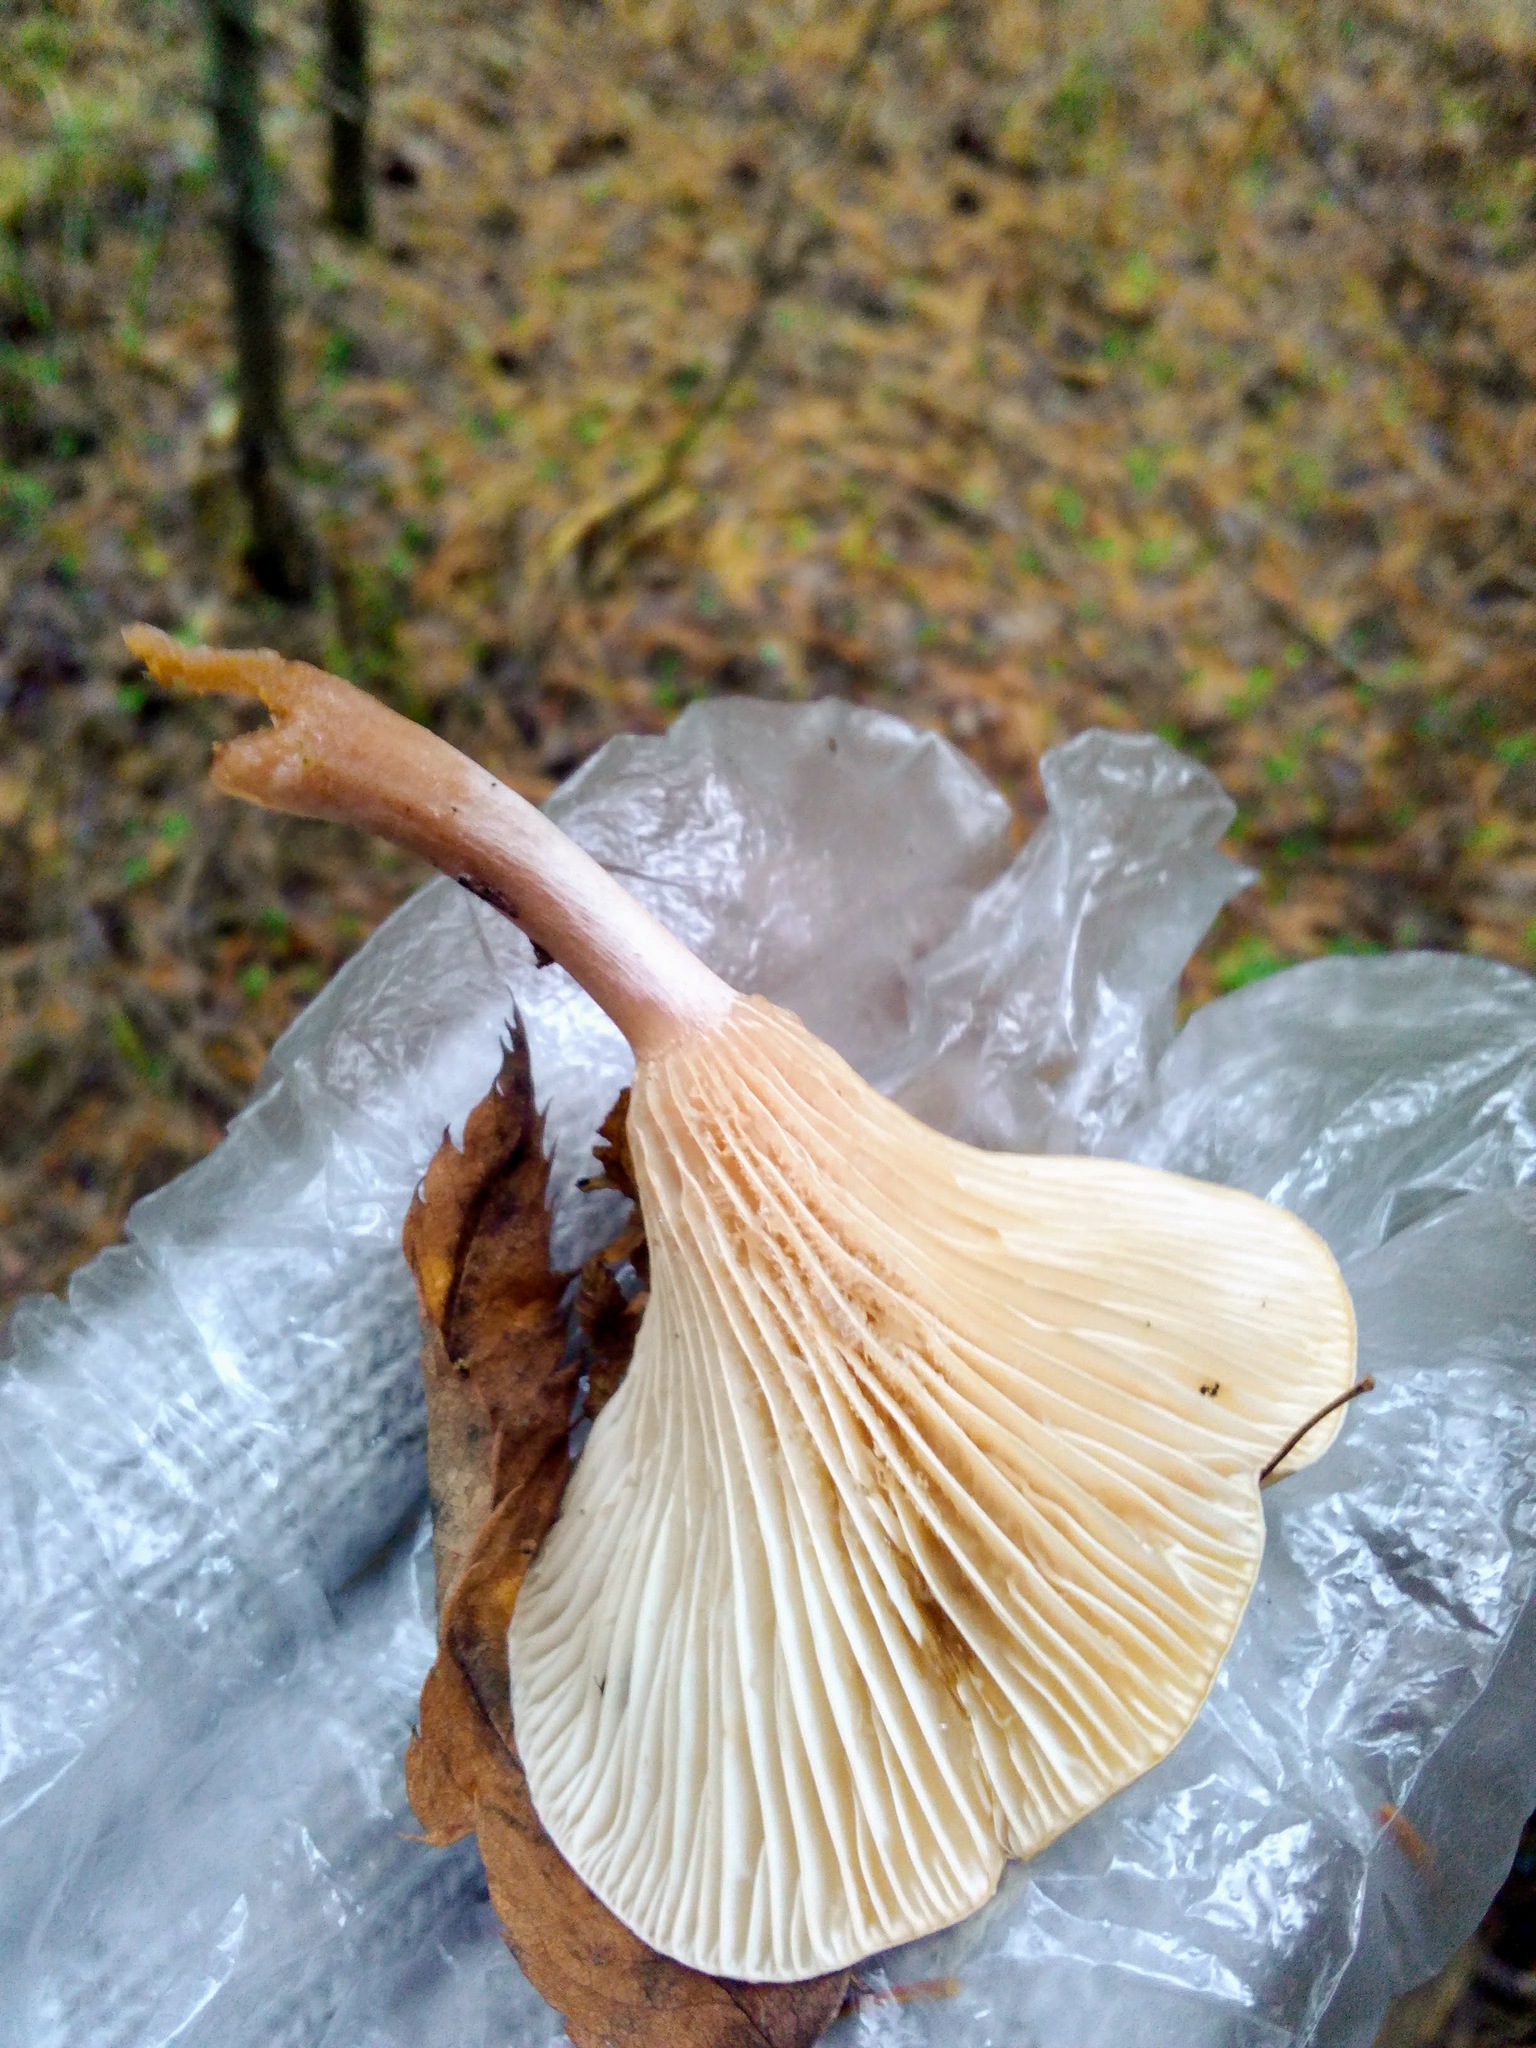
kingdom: Fungi
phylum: Basidiomycota
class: Agaricomycetes
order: Agaricales
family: Hygrophoraceae
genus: Ampulloclitocybe
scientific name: Ampulloclitocybe clavipes
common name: Club foot
